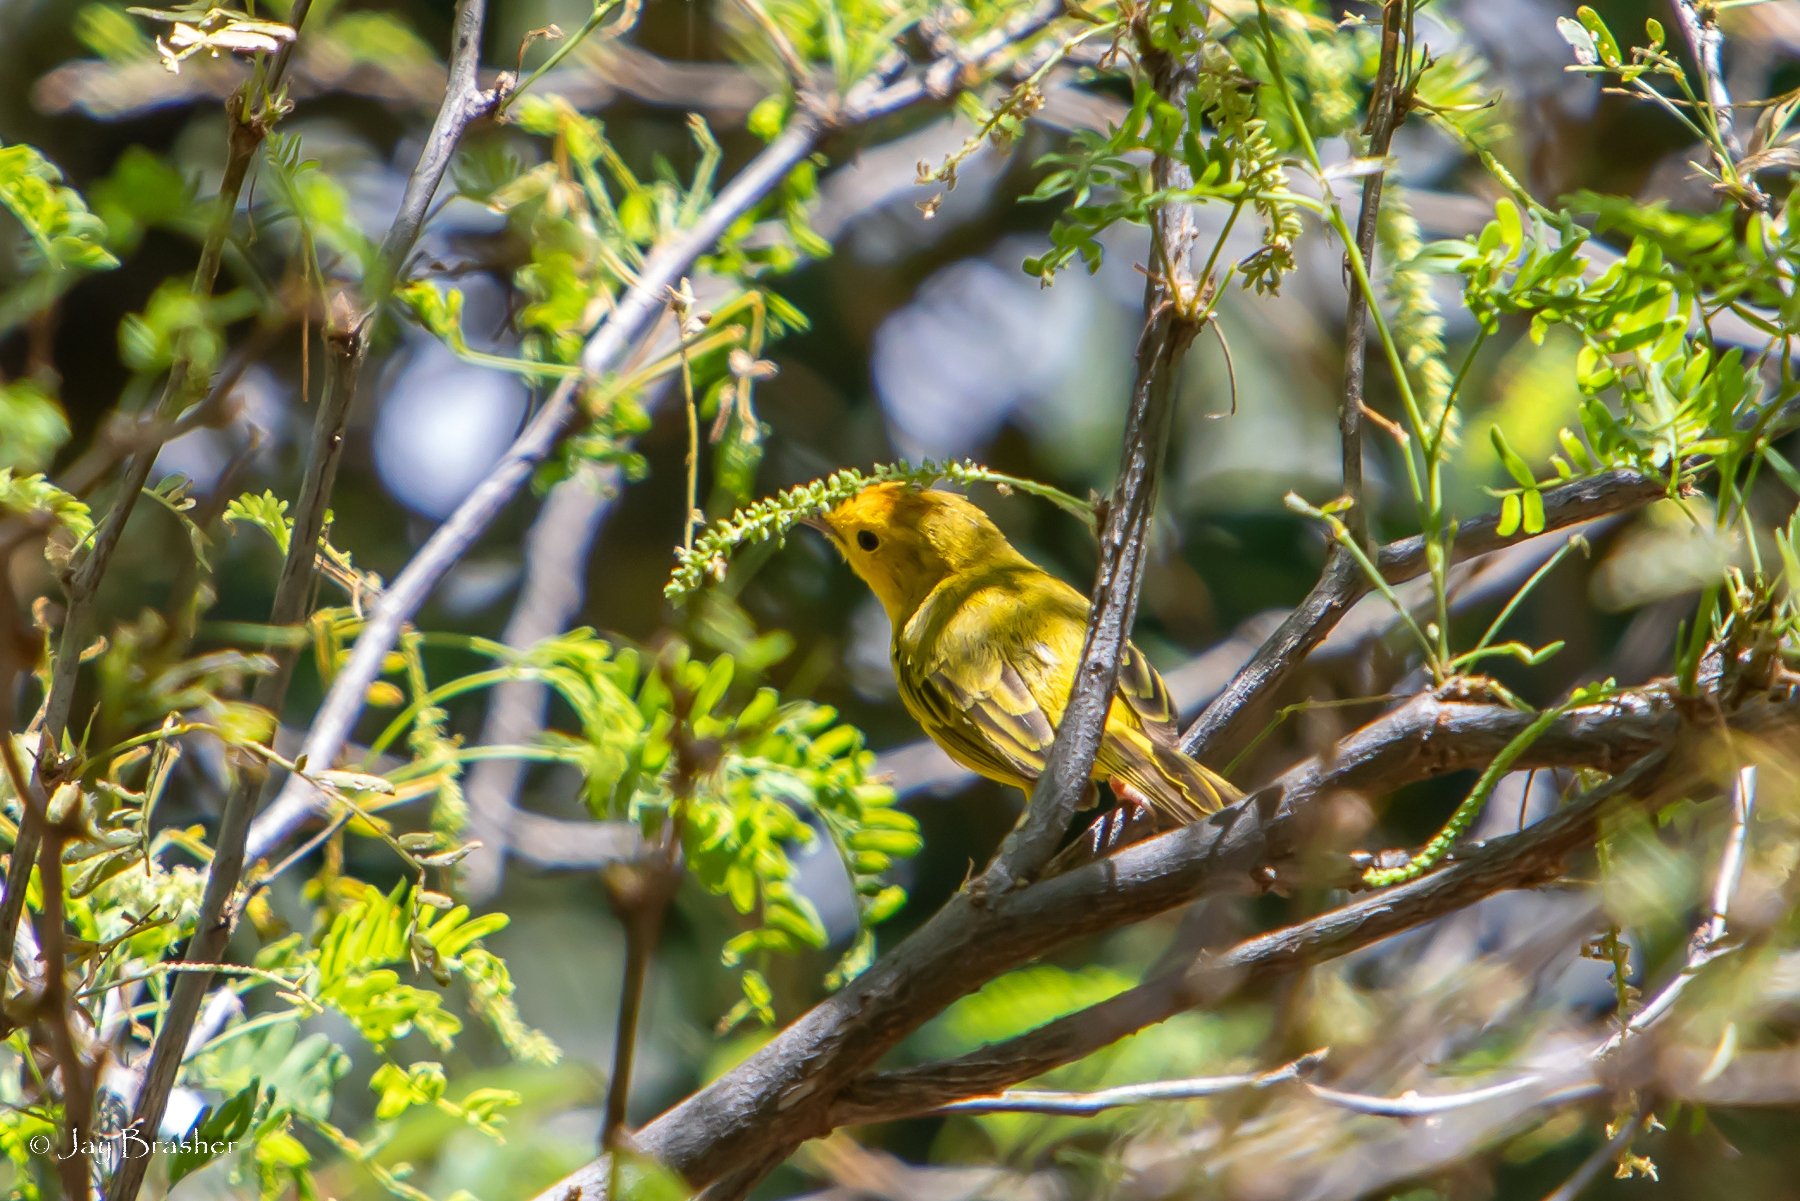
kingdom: Animalia
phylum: Chordata
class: Aves
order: Passeriformes
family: Parulidae
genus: Setophaga
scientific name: Setophaga petechia
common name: Yellow warbler
